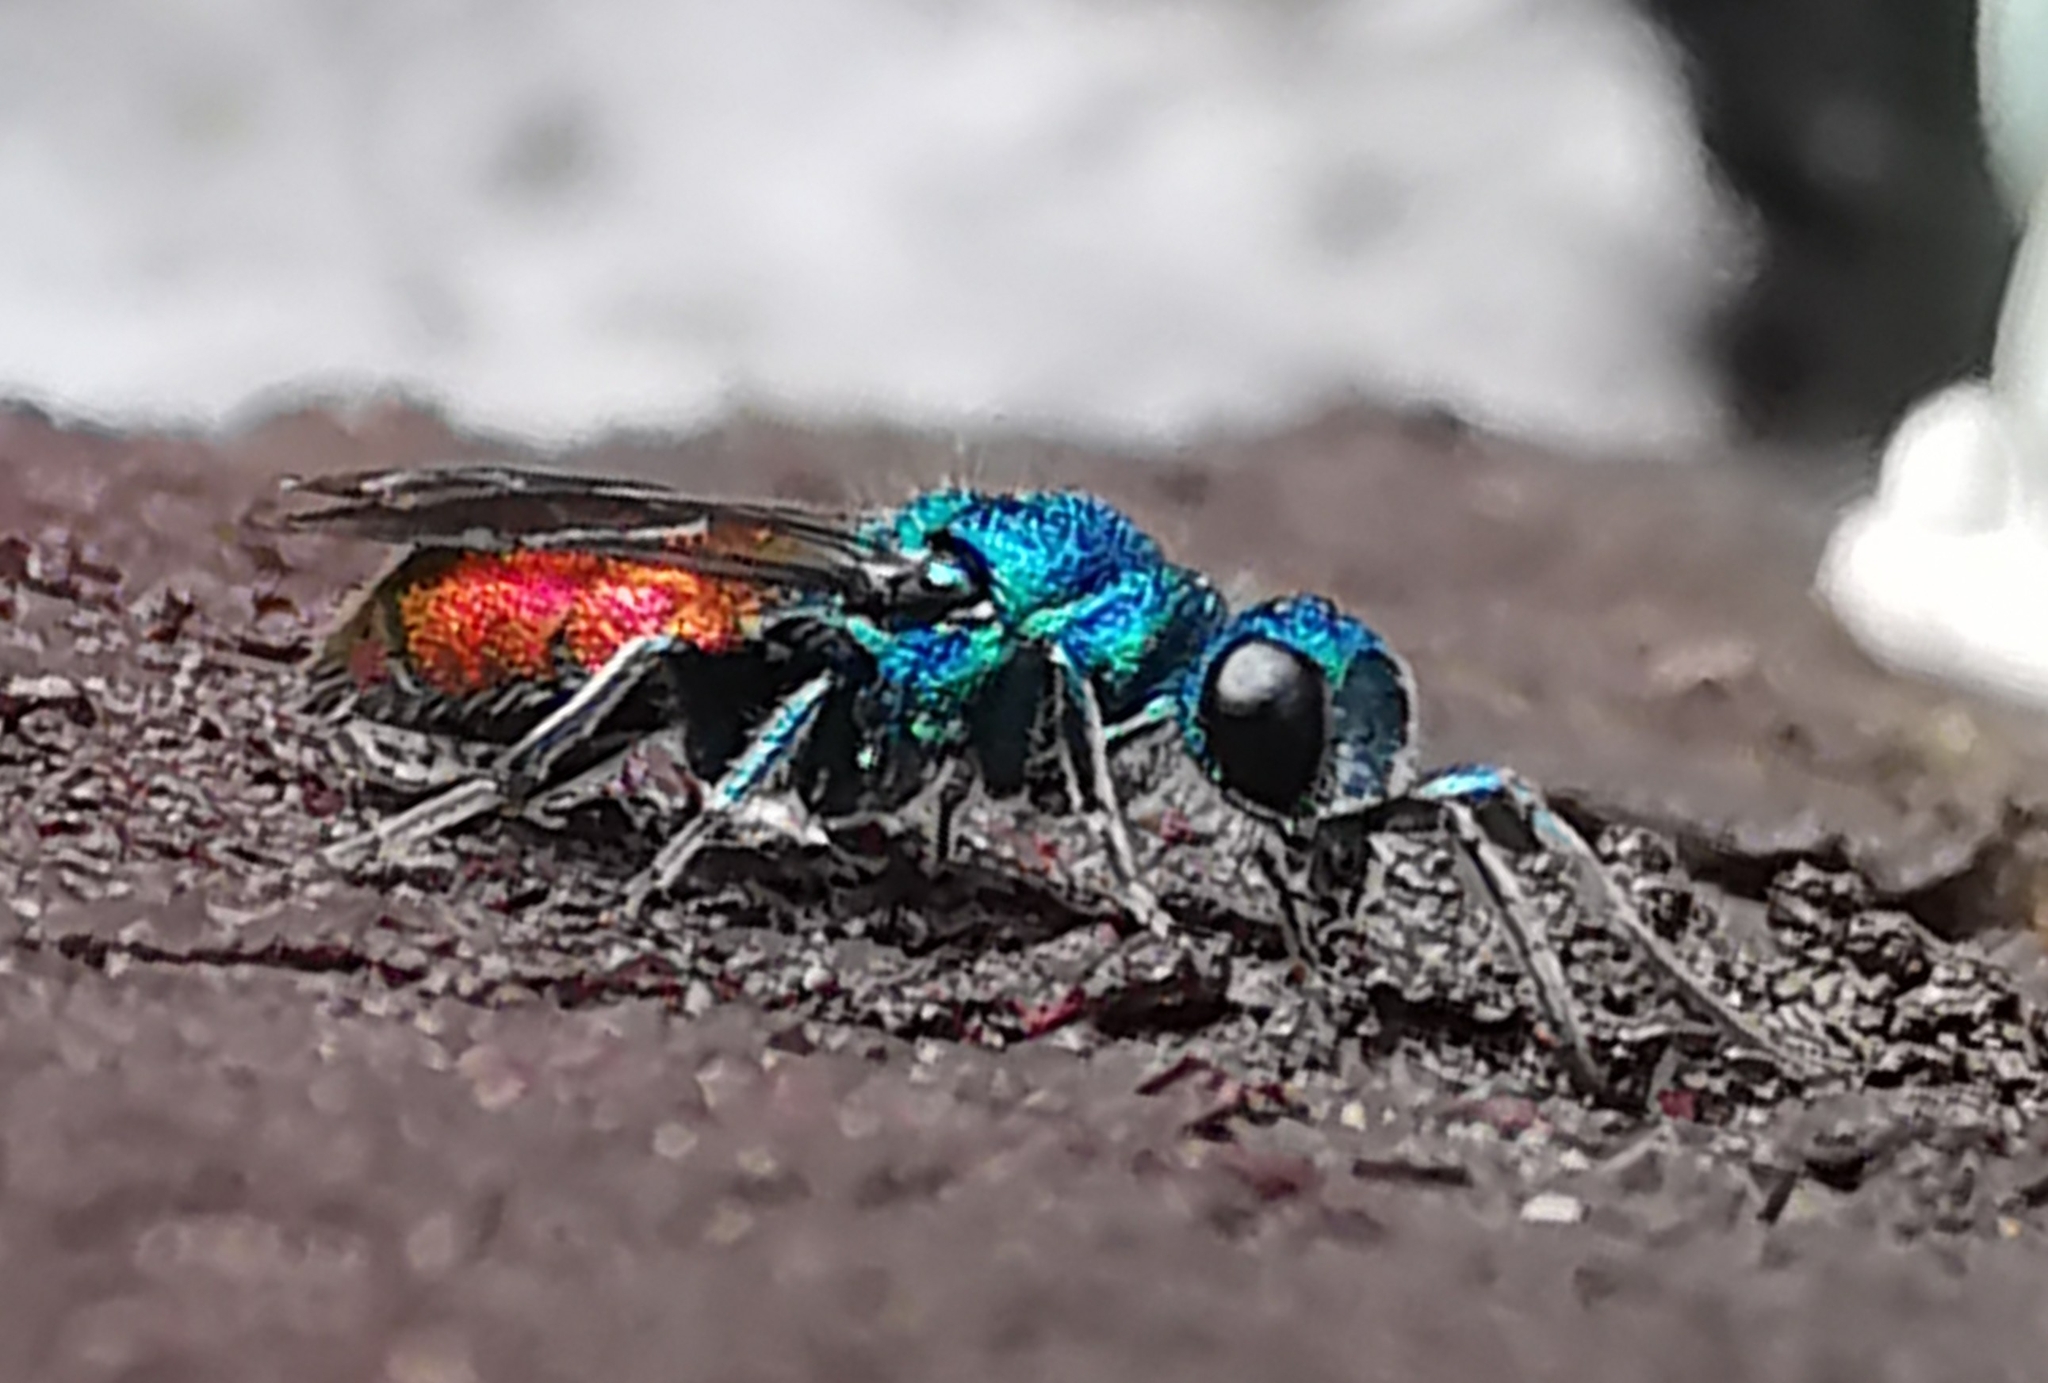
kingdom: Animalia
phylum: Arthropoda
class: Insecta
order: Hymenoptera
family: Chrysididae
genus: Chrysis
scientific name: Chrysis
